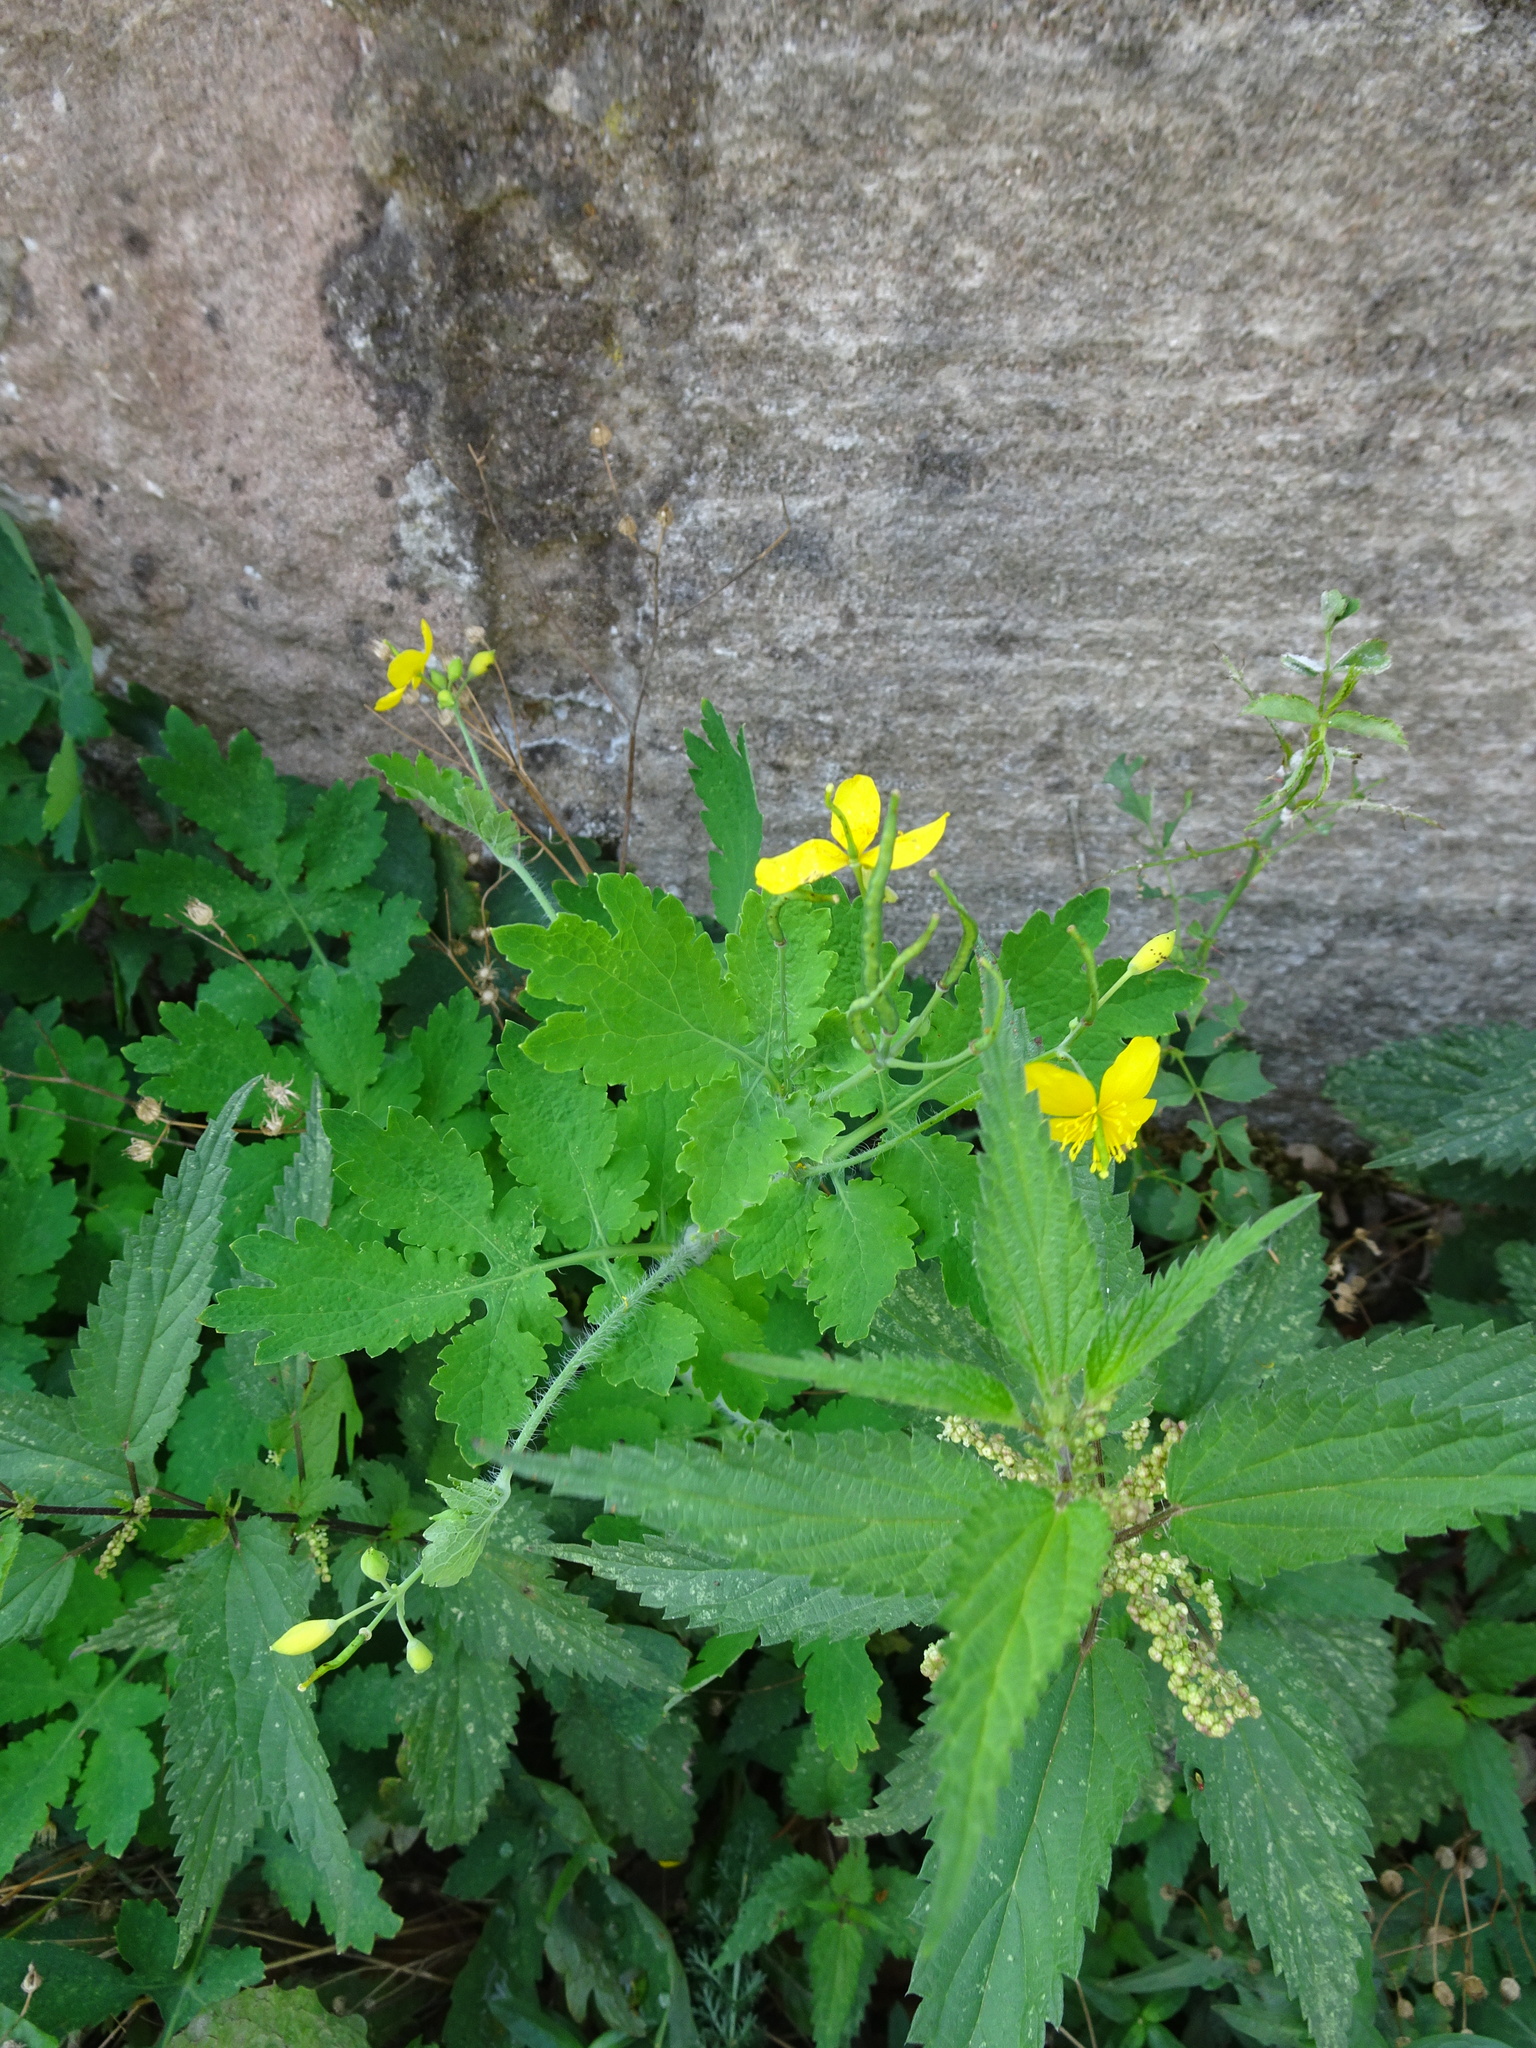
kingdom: Plantae
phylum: Tracheophyta
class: Magnoliopsida
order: Ranunculales
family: Papaveraceae
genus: Chelidonium
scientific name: Chelidonium majus
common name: Greater celandine
